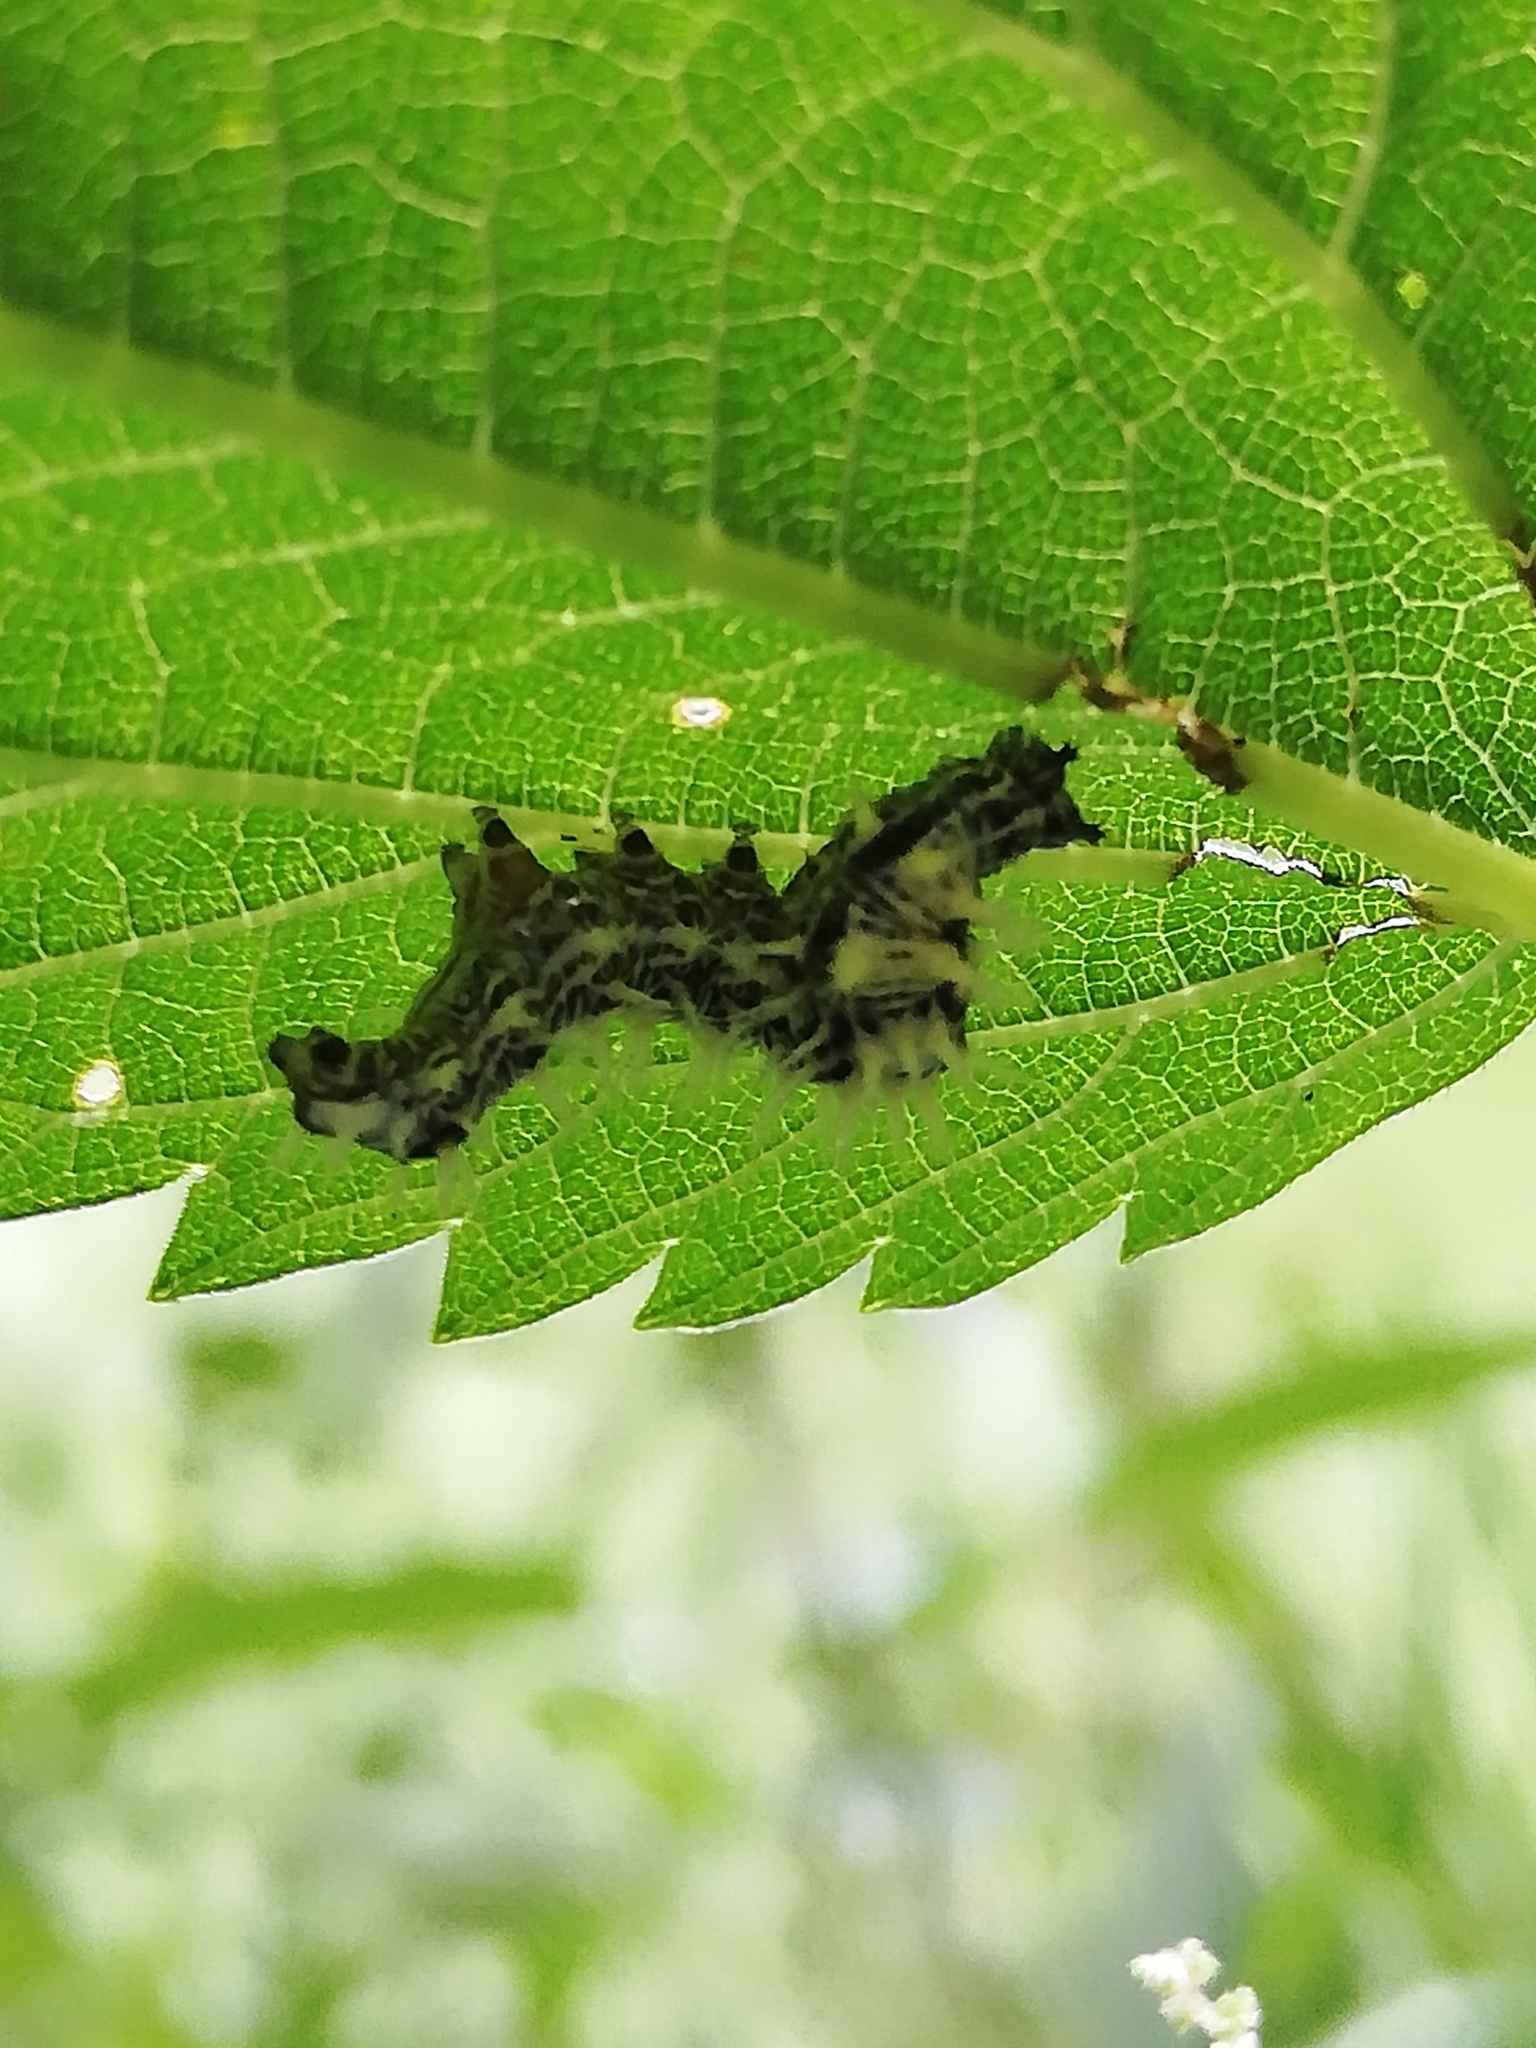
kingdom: Animalia
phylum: Arthropoda
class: Insecta
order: Lepidoptera
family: Nymphalidae
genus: Polygonia
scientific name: Polygonia c-album
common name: Comma
